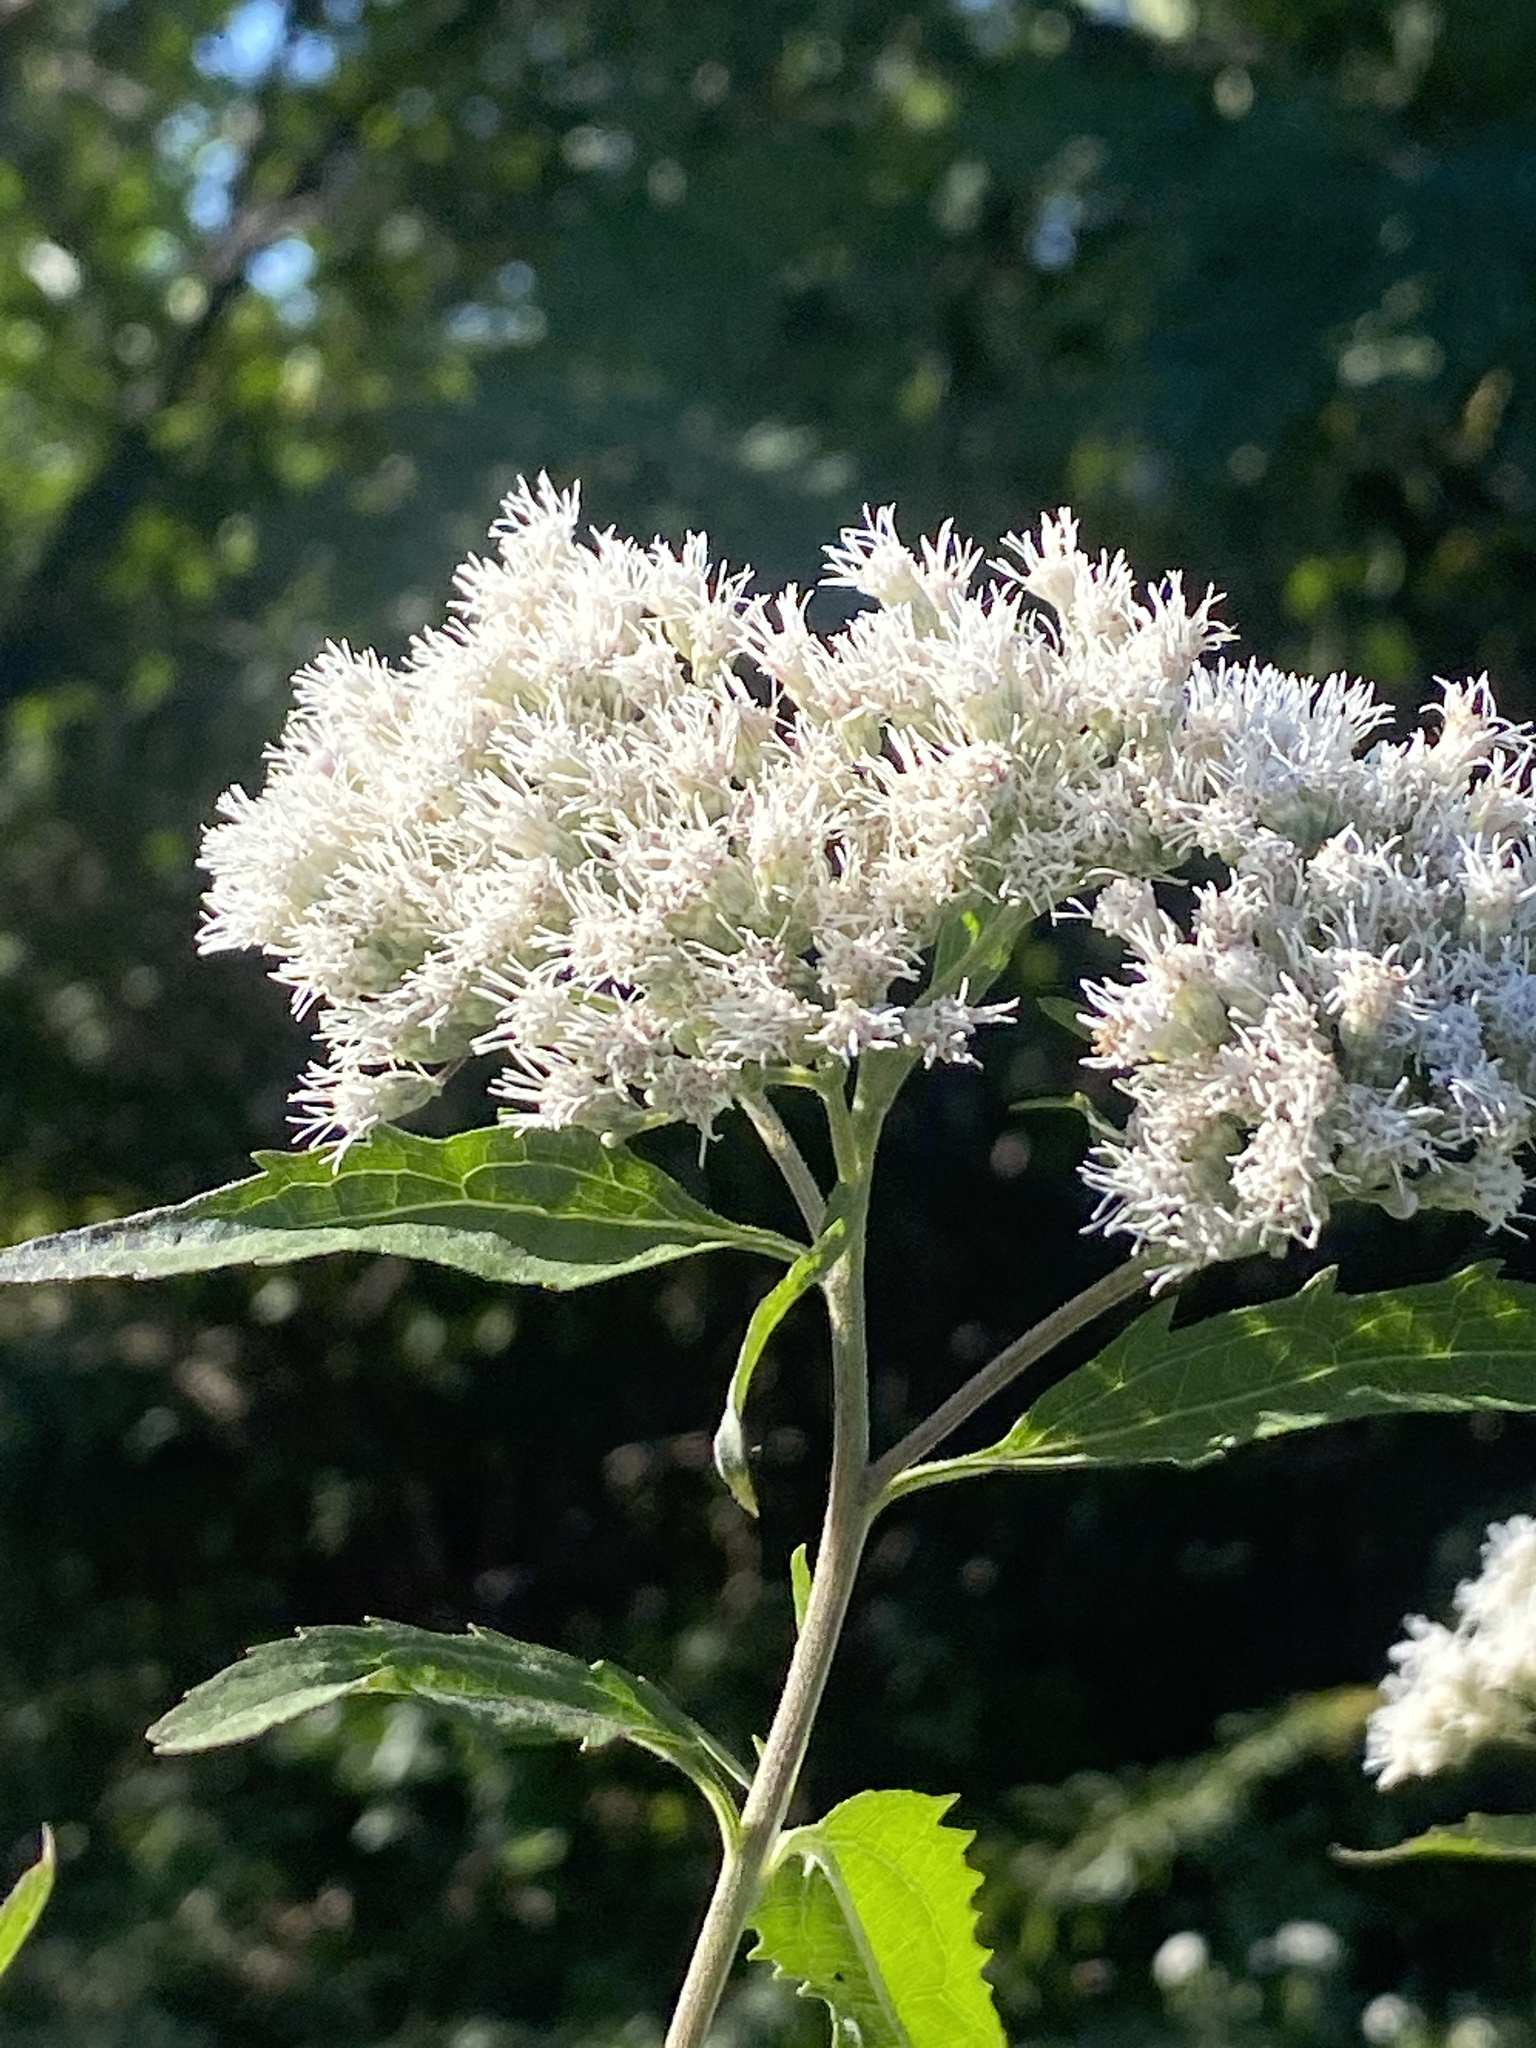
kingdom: Plantae
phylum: Tracheophyta
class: Magnoliopsida
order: Asterales
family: Asteraceae
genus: Eupatorium
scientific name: Eupatorium serotinum
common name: Late boneset
